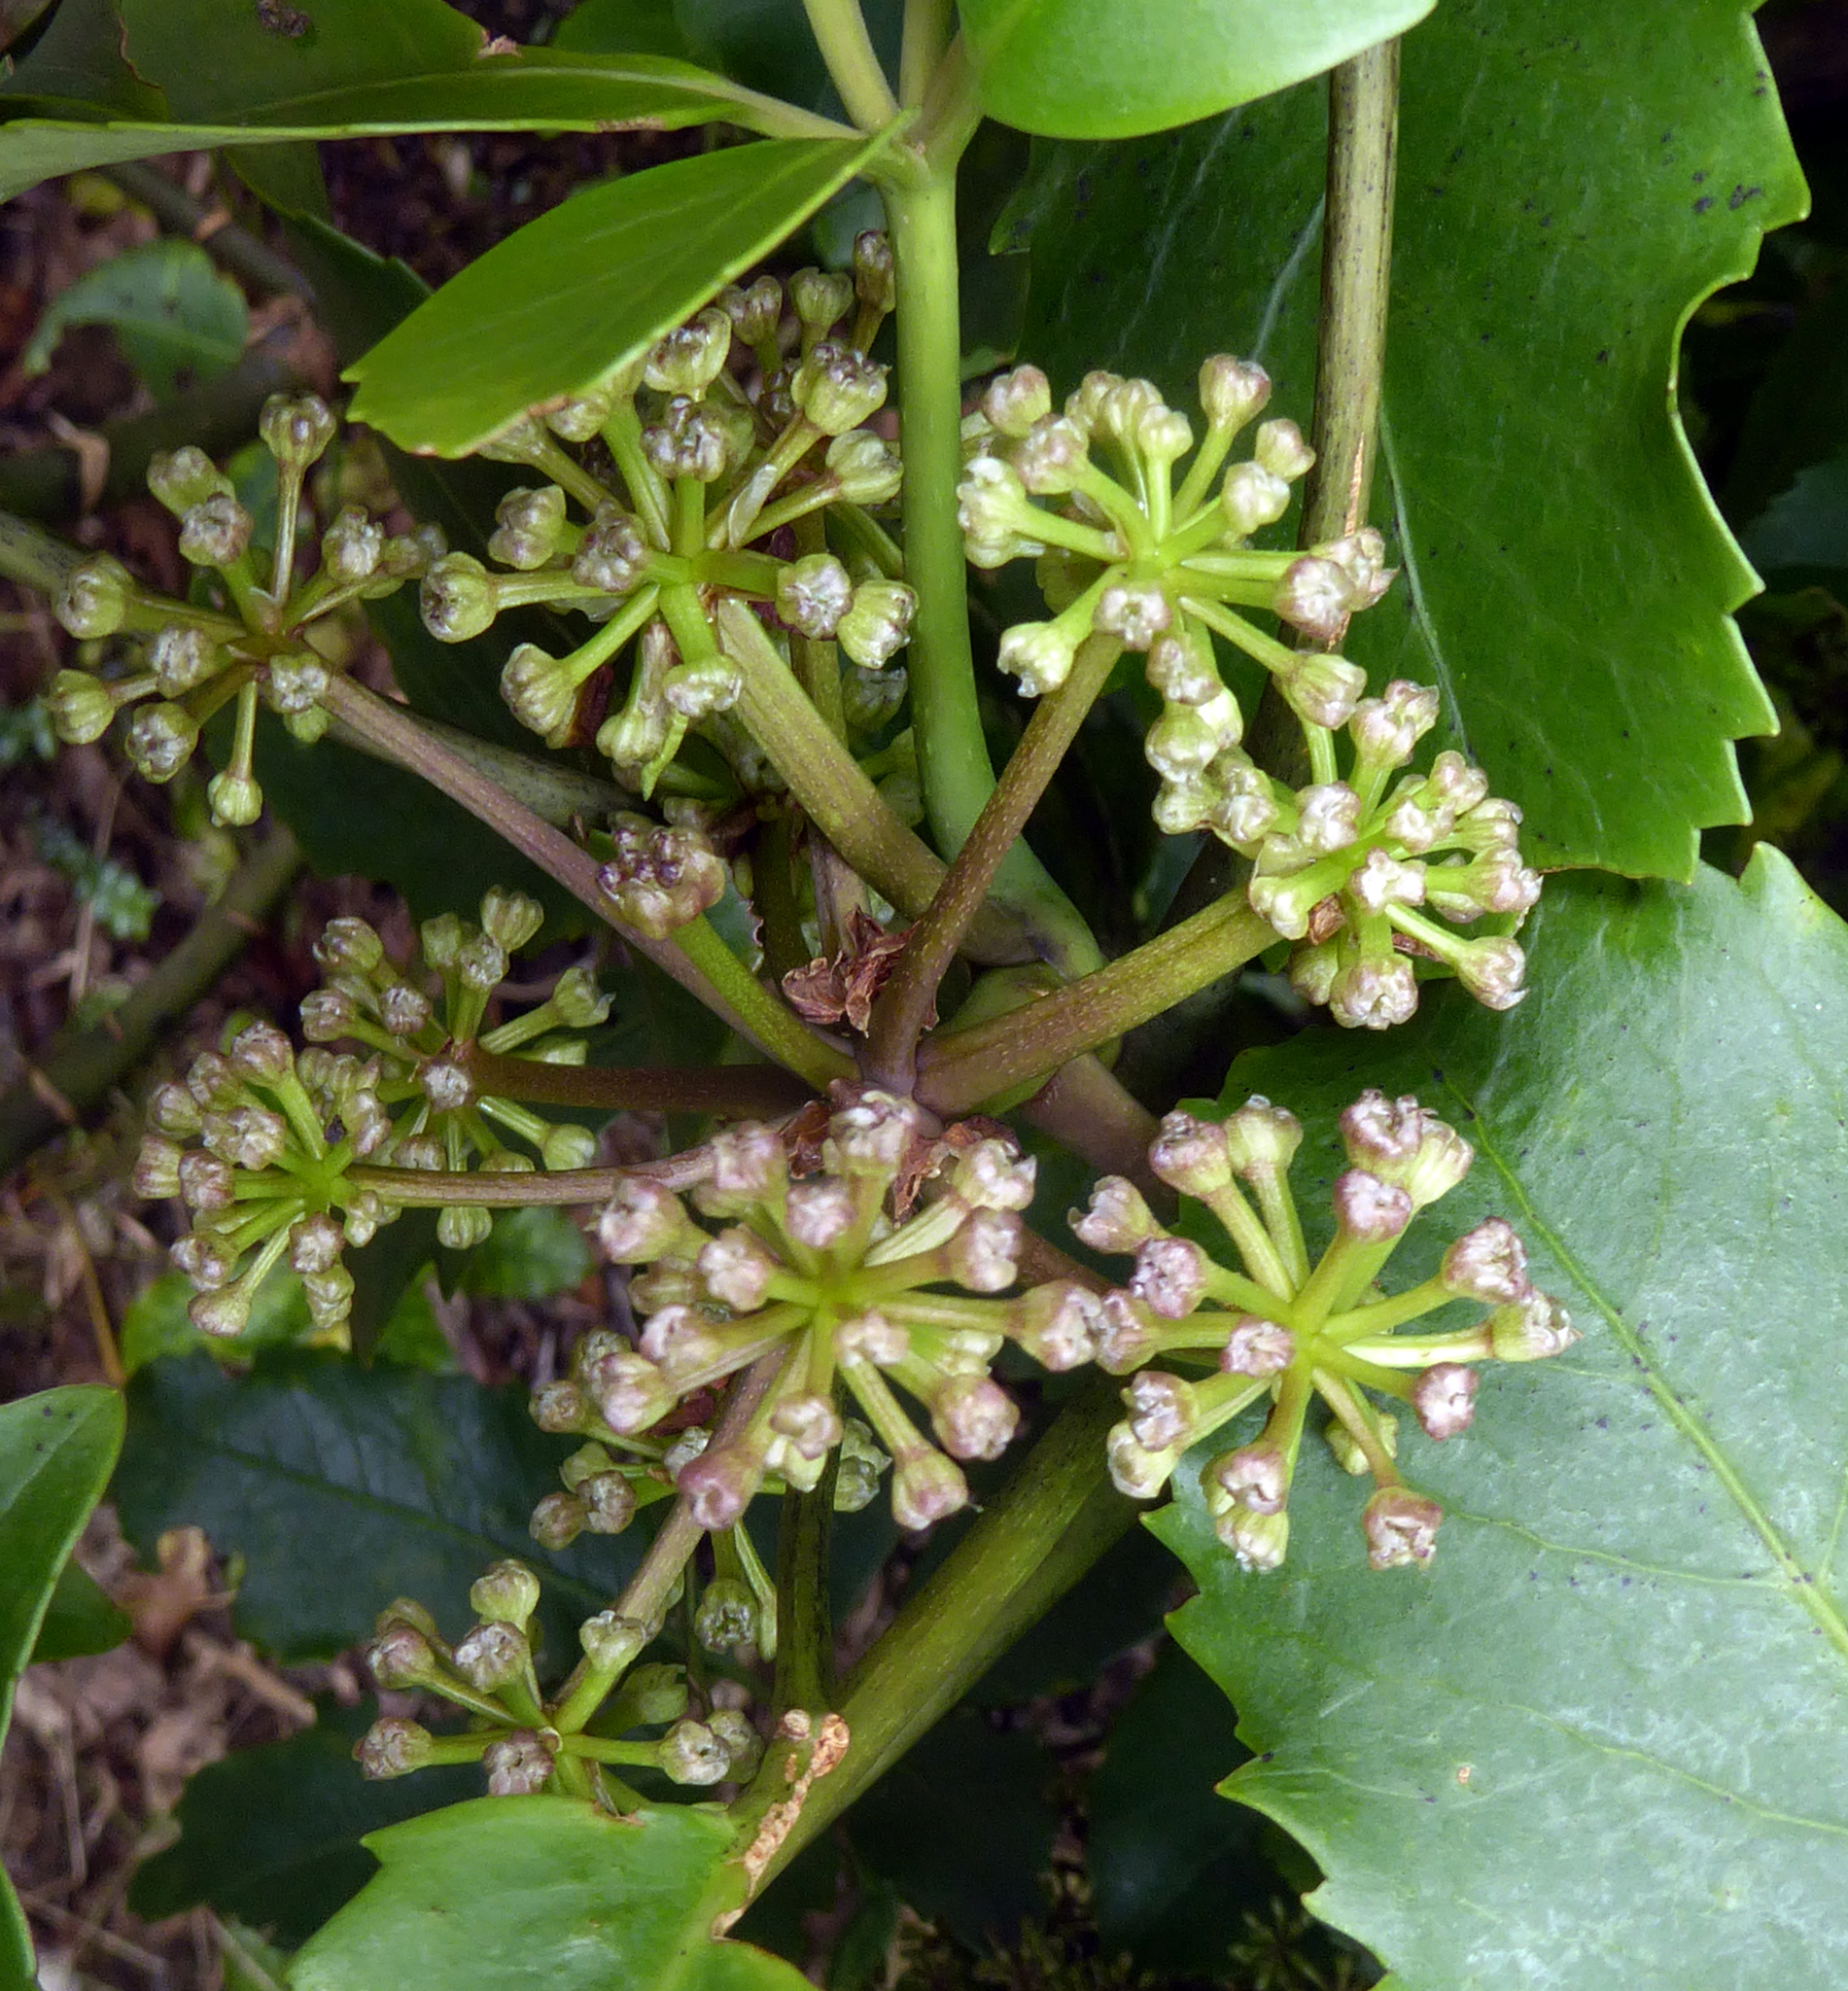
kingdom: Plantae
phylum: Tracheophyta
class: Magnoliopsida
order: Apiales
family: Araliaceae
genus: Neopanax
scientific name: Neopanax arboreus
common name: Five-fingers
